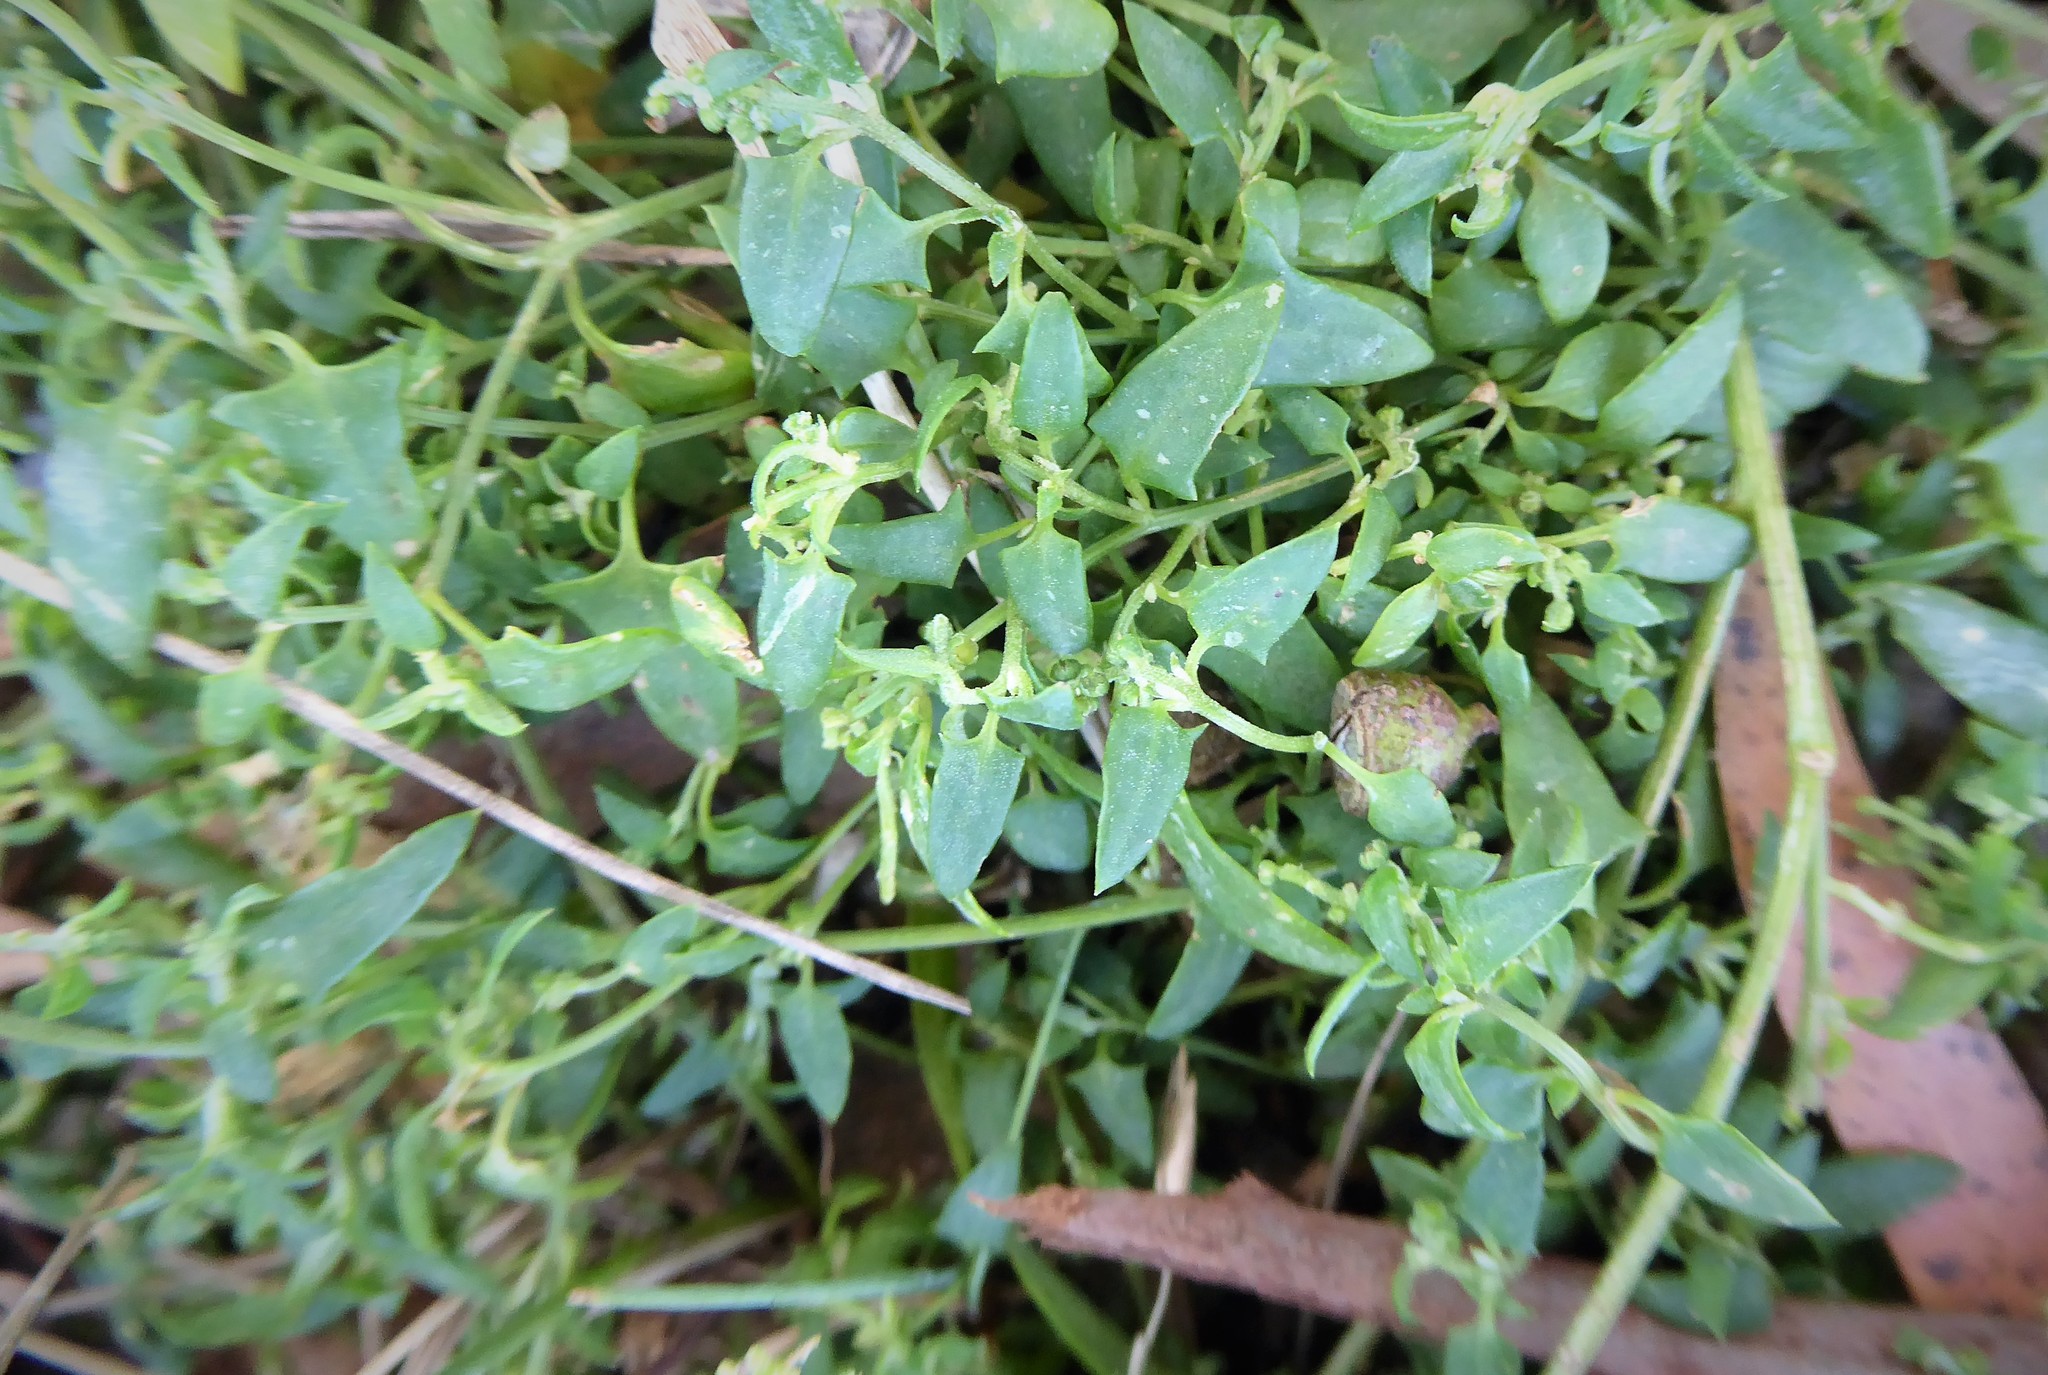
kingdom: Plantae
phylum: Tracheophyta
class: Magnoliopsida
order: Caryophyllales
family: Amaranthaceae
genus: Chenopodium
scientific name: Chenopodium nutans
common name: Climbing-saltbush
